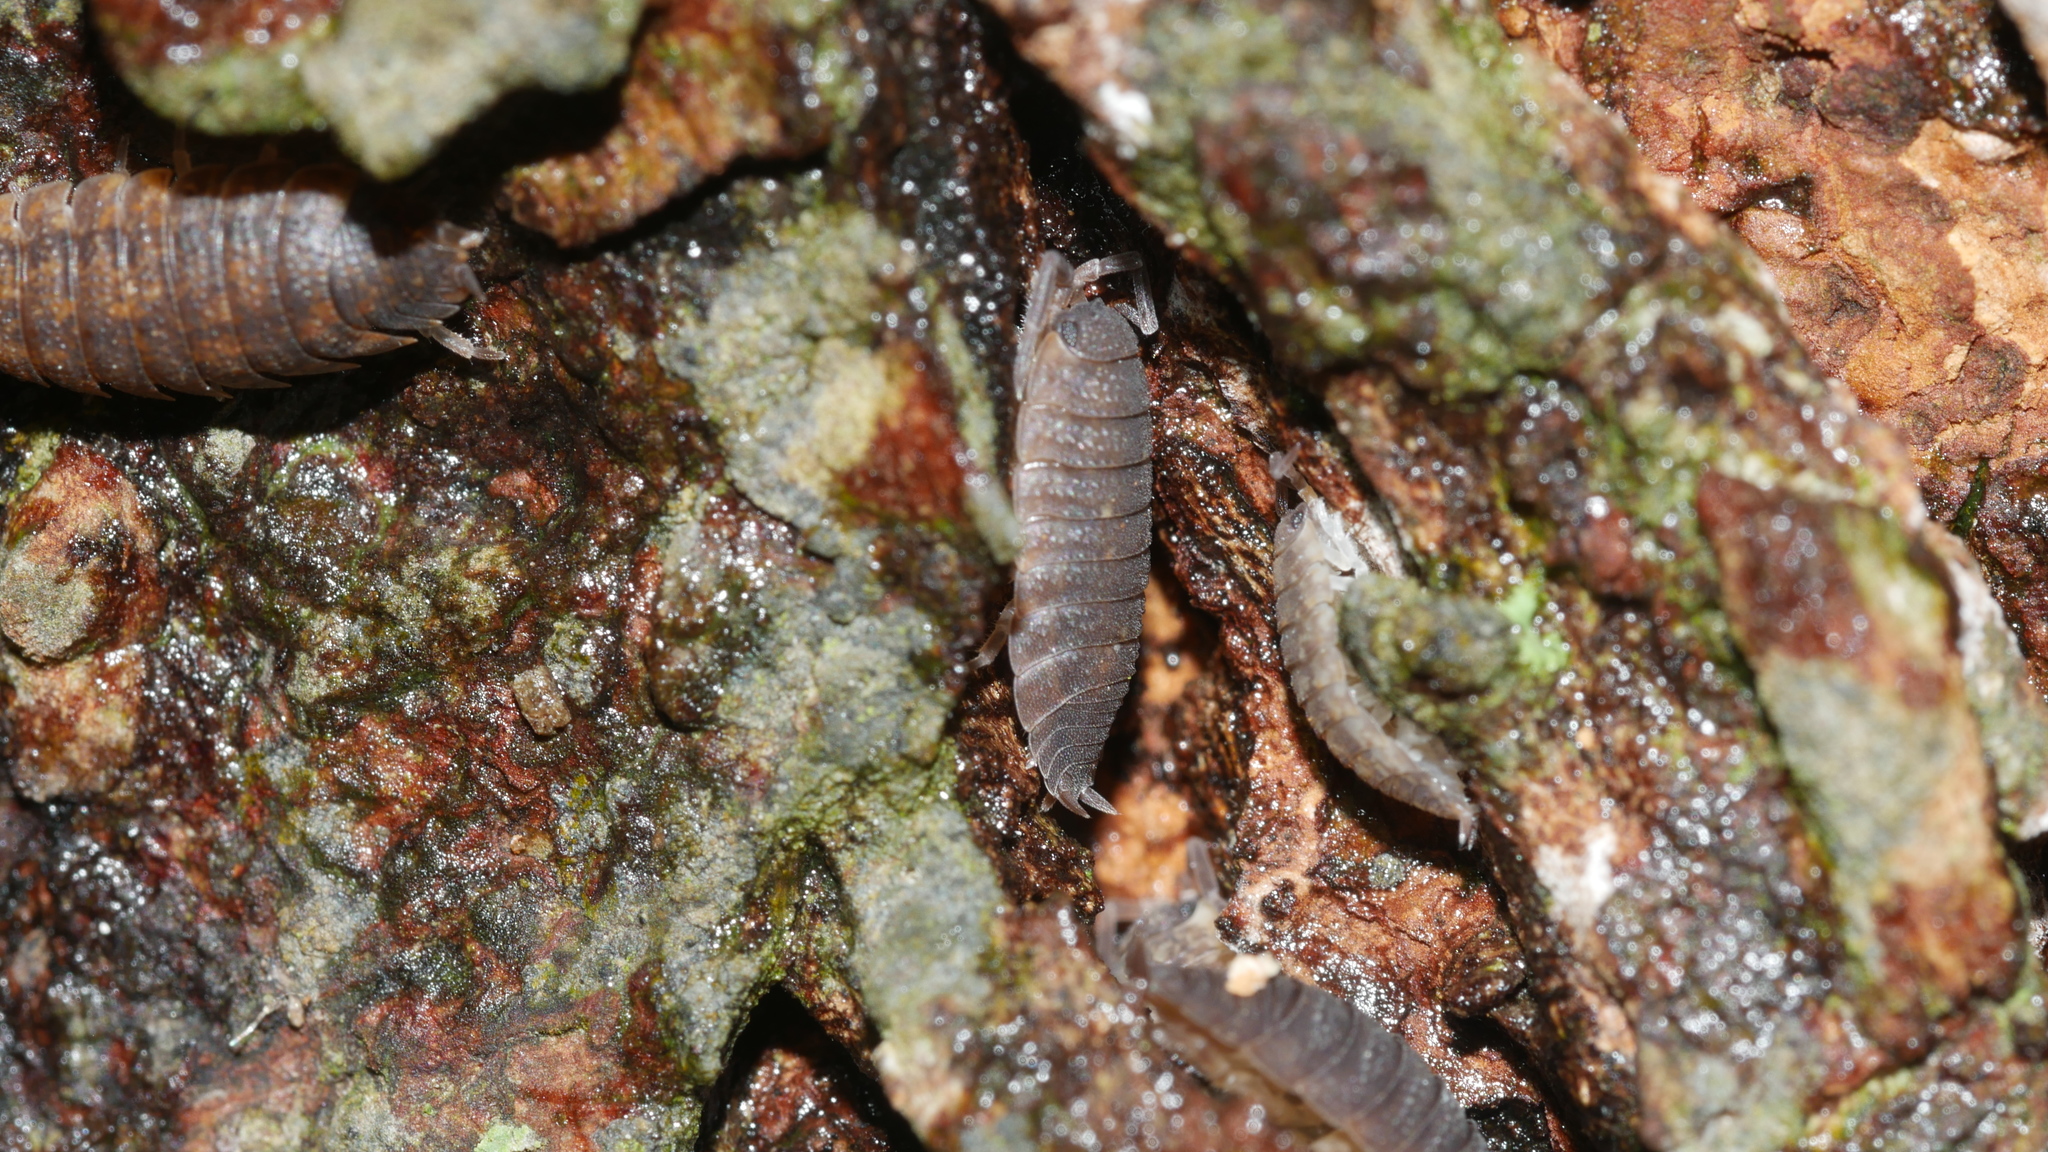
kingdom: Animalia
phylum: Arthropoda
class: Malacostraca
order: Isopoda
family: Porcellionidae
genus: Porcellio
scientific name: Porcellio scaber
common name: Common rough woodlouse
